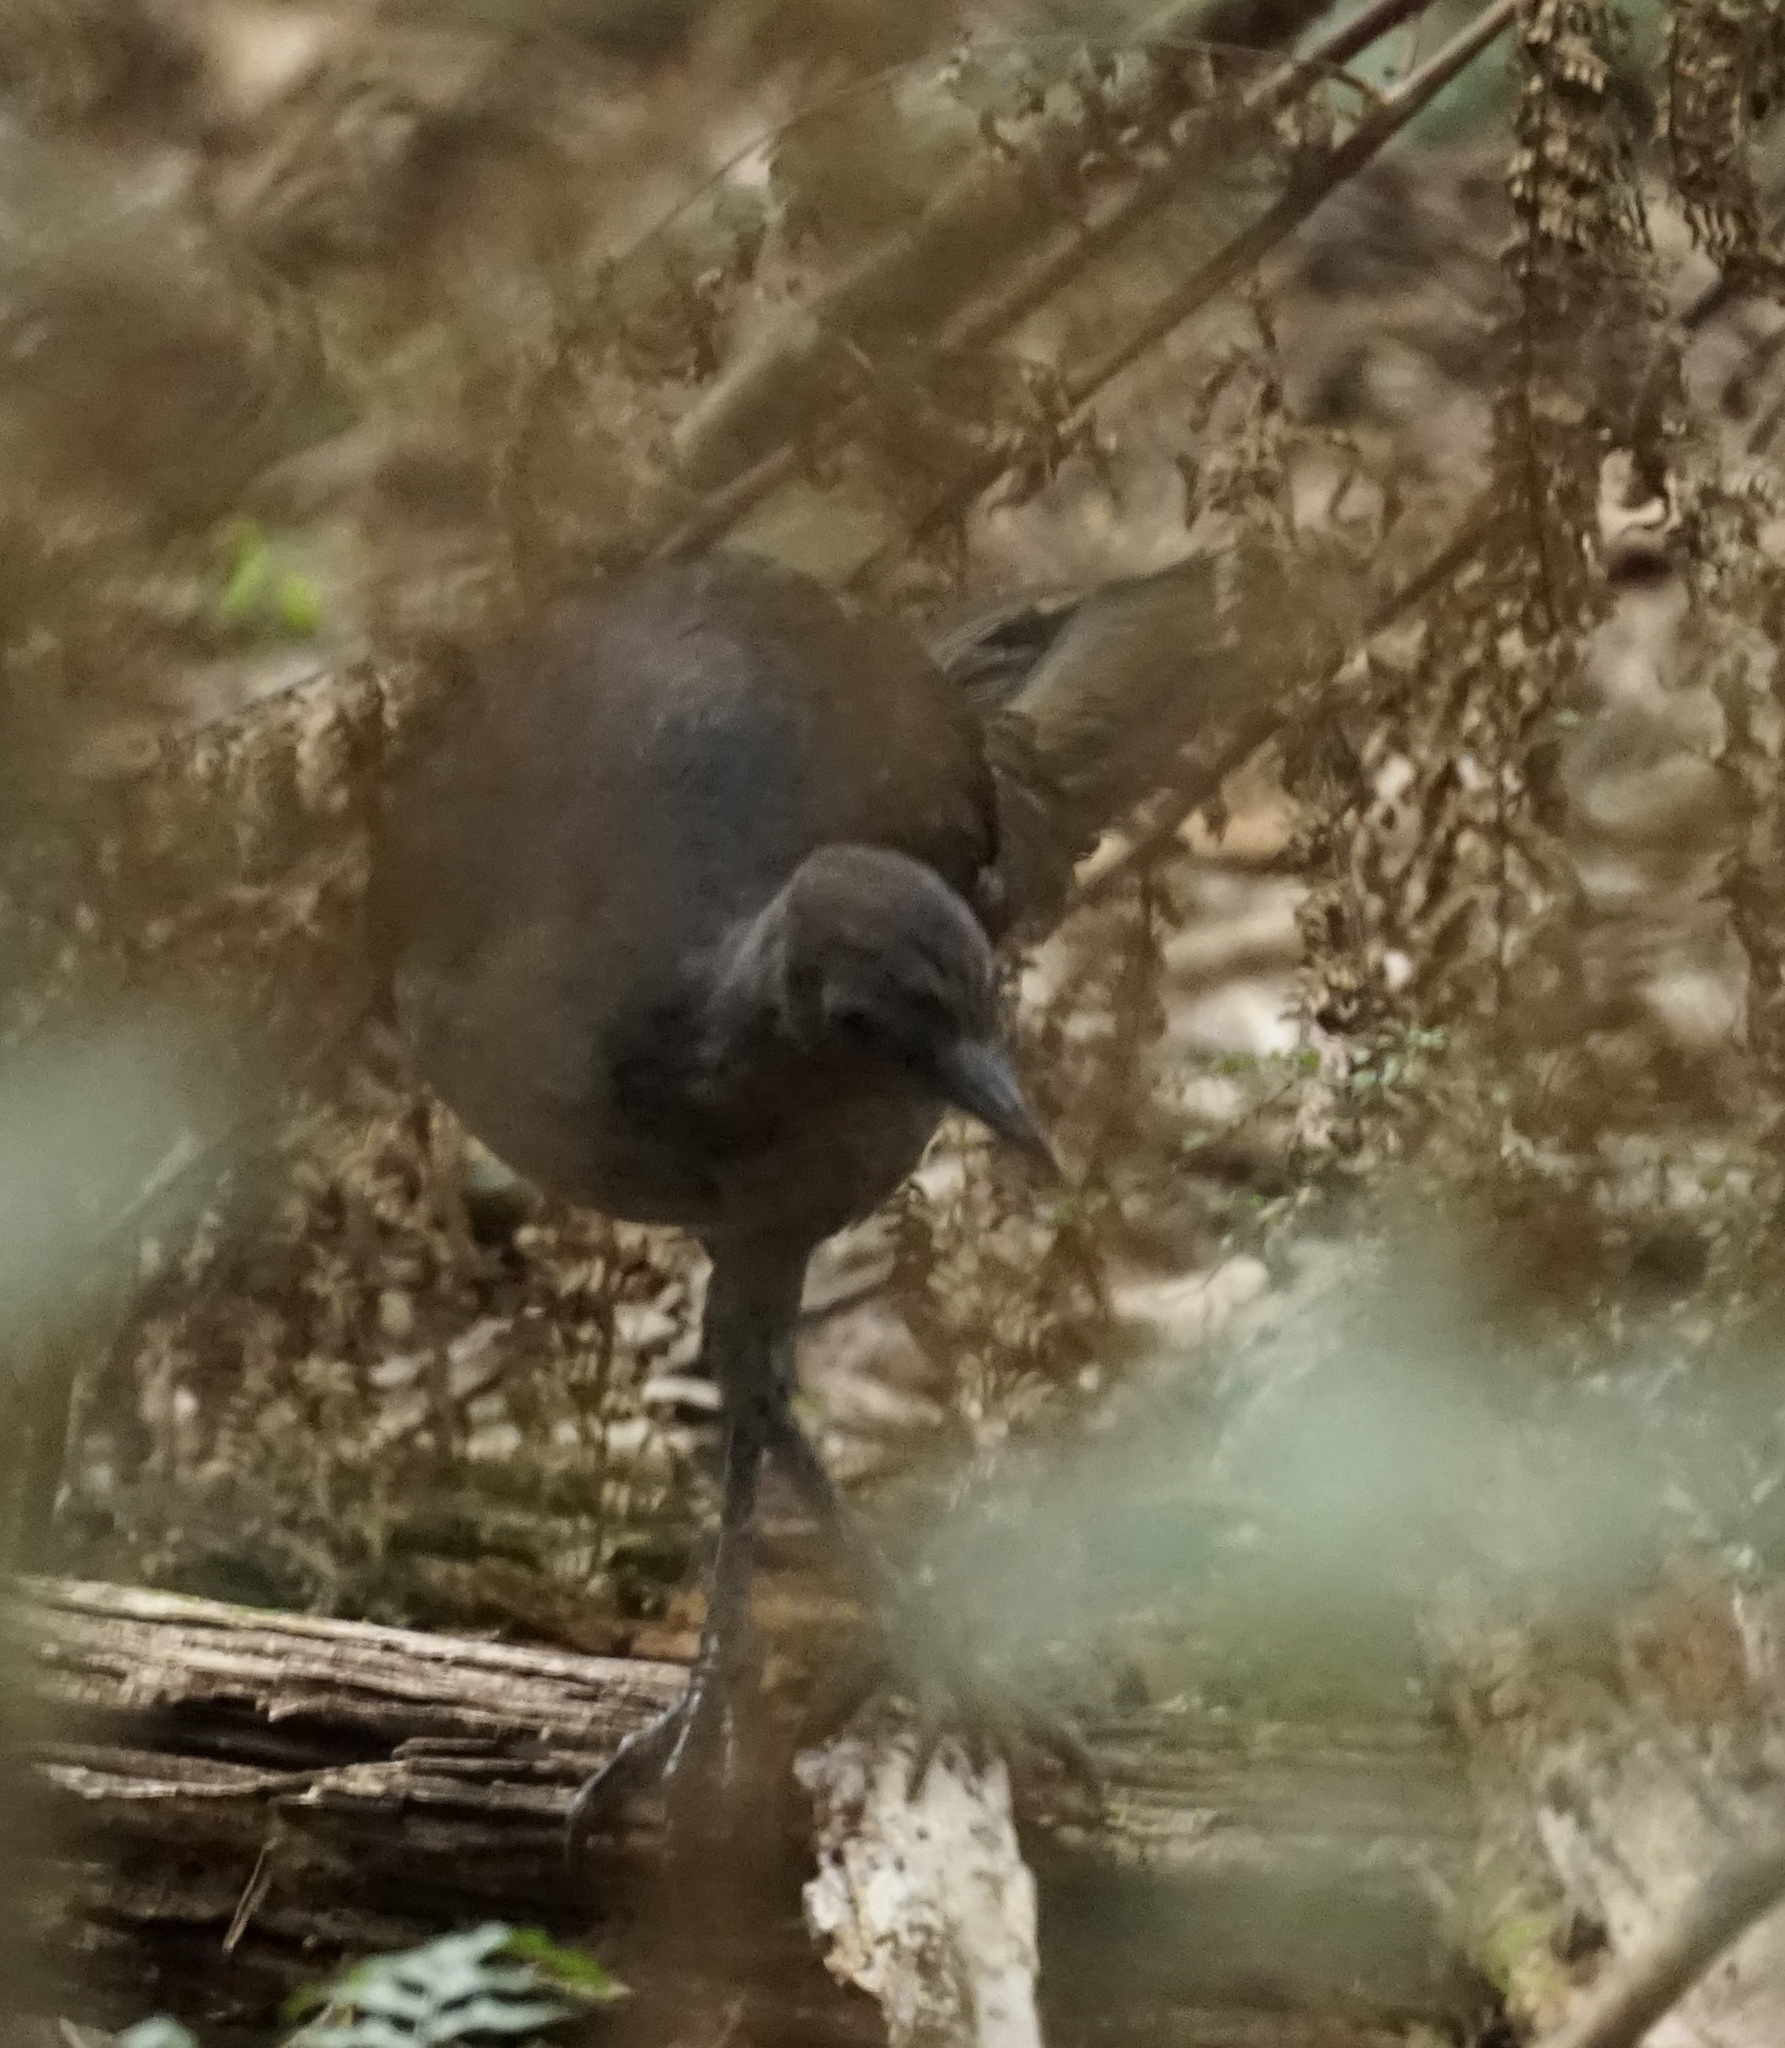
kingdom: Animalia
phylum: Chordata
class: Aves
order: Passeriformes
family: Menuridae
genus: Menura
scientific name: Menura novaehollandiae
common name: Superb lyrebird
